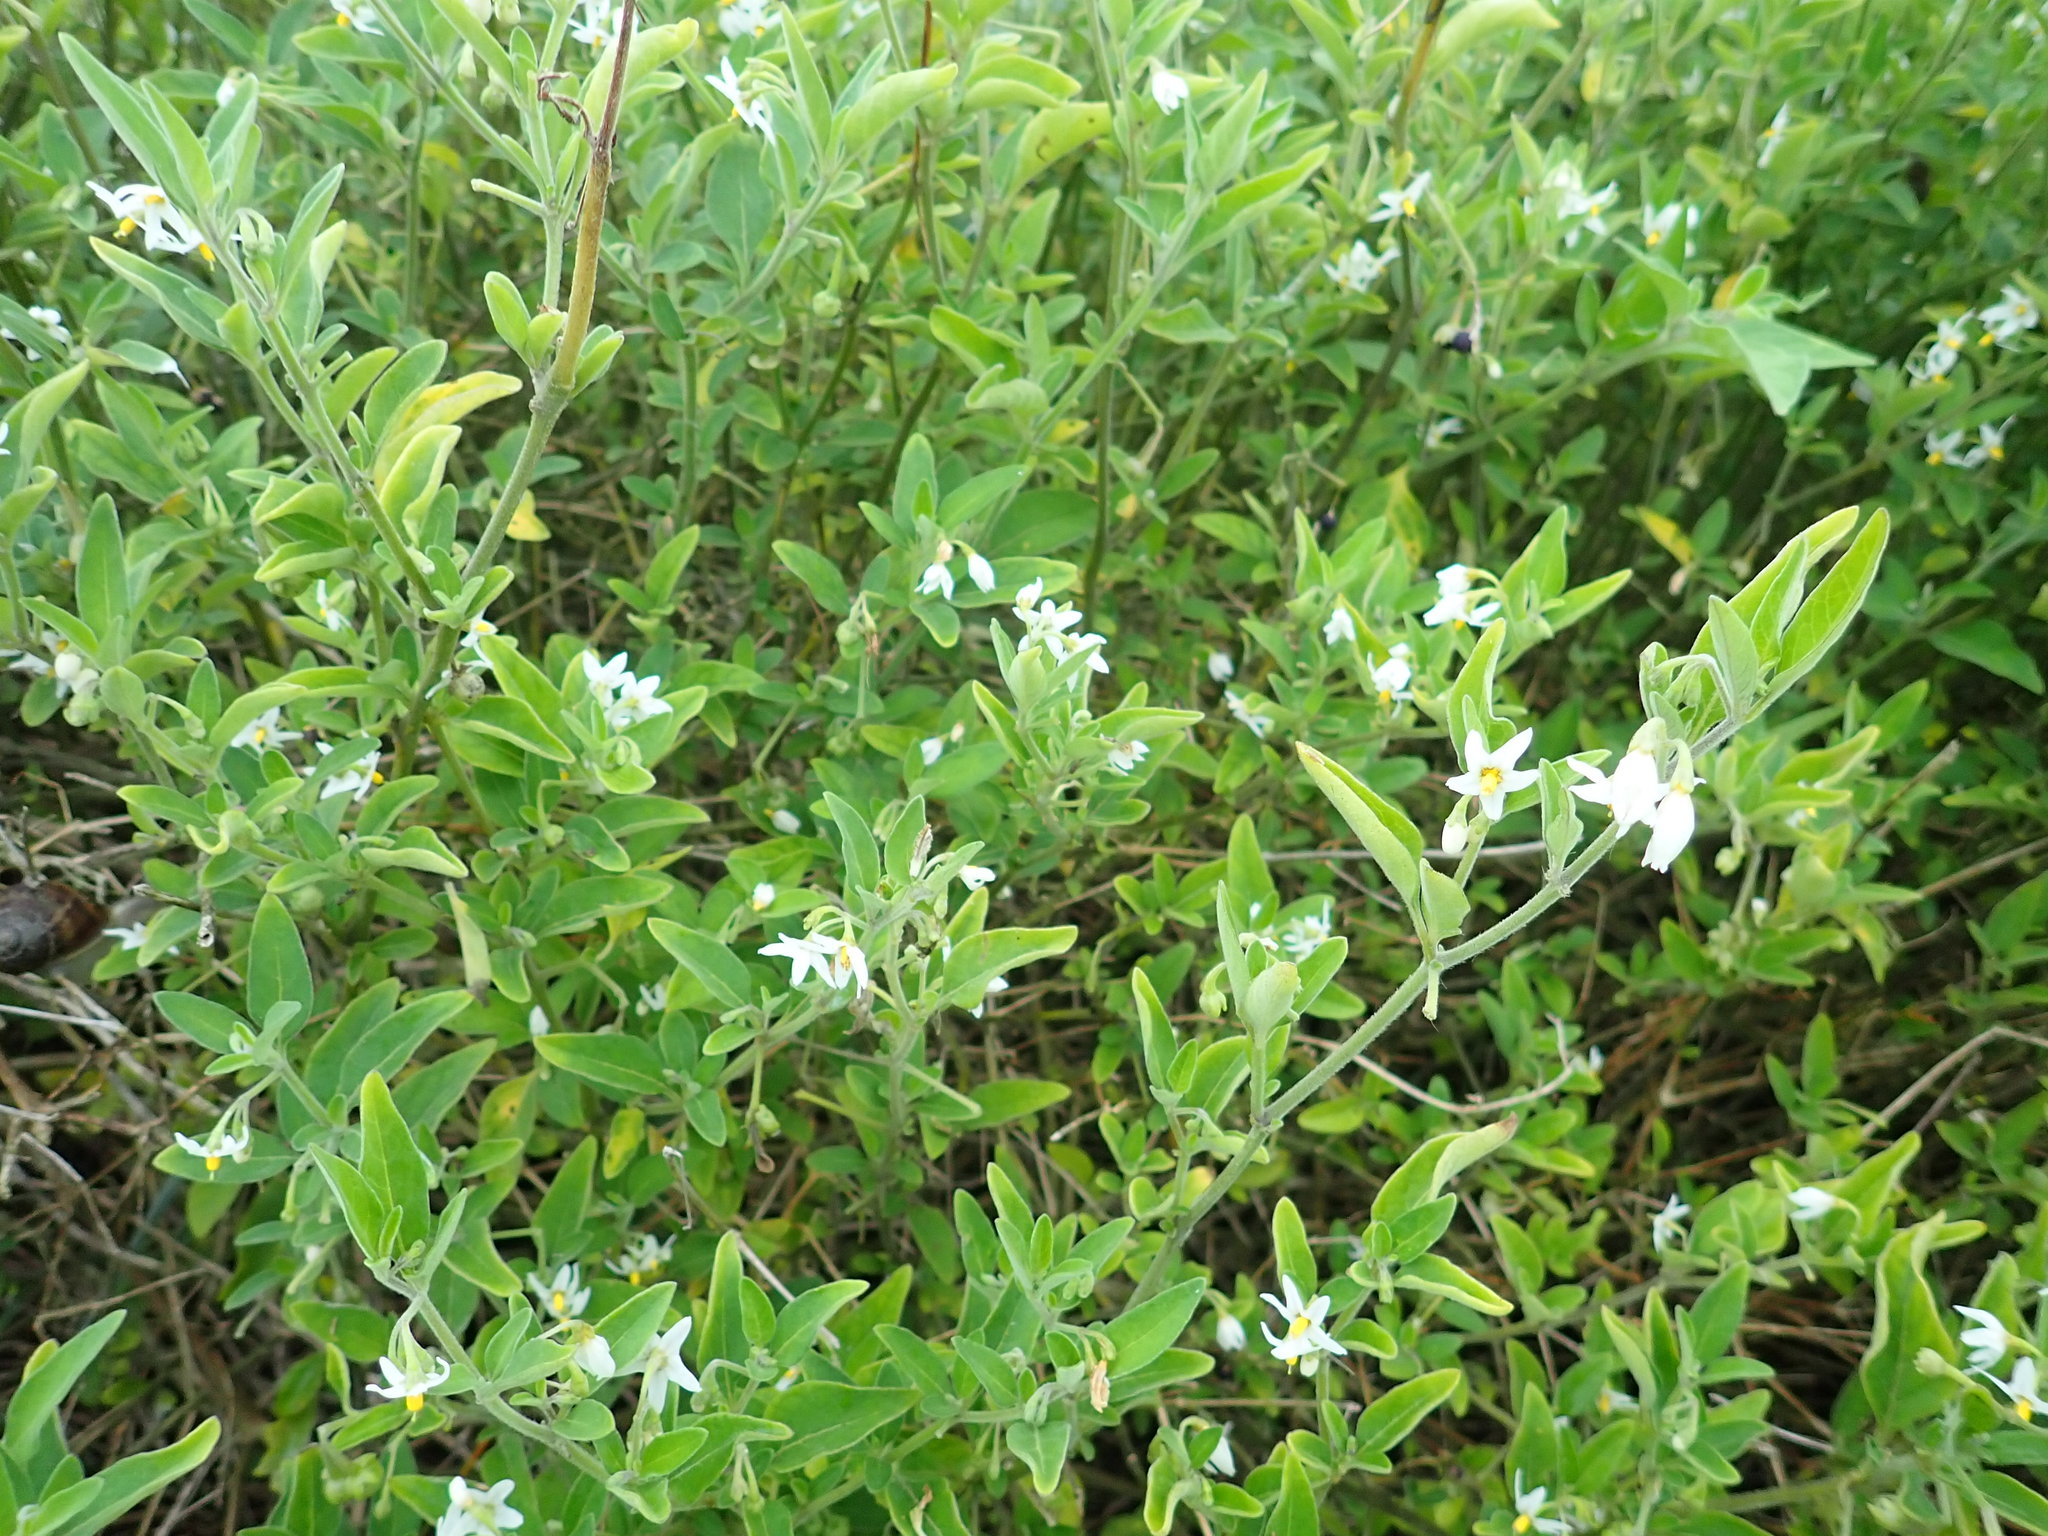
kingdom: Plantae
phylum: Tracheophyta
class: Magnoliopsida
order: Solanales
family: Solanaceae
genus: Solanum
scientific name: Solanum chenopodioides
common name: Tall nightshade
